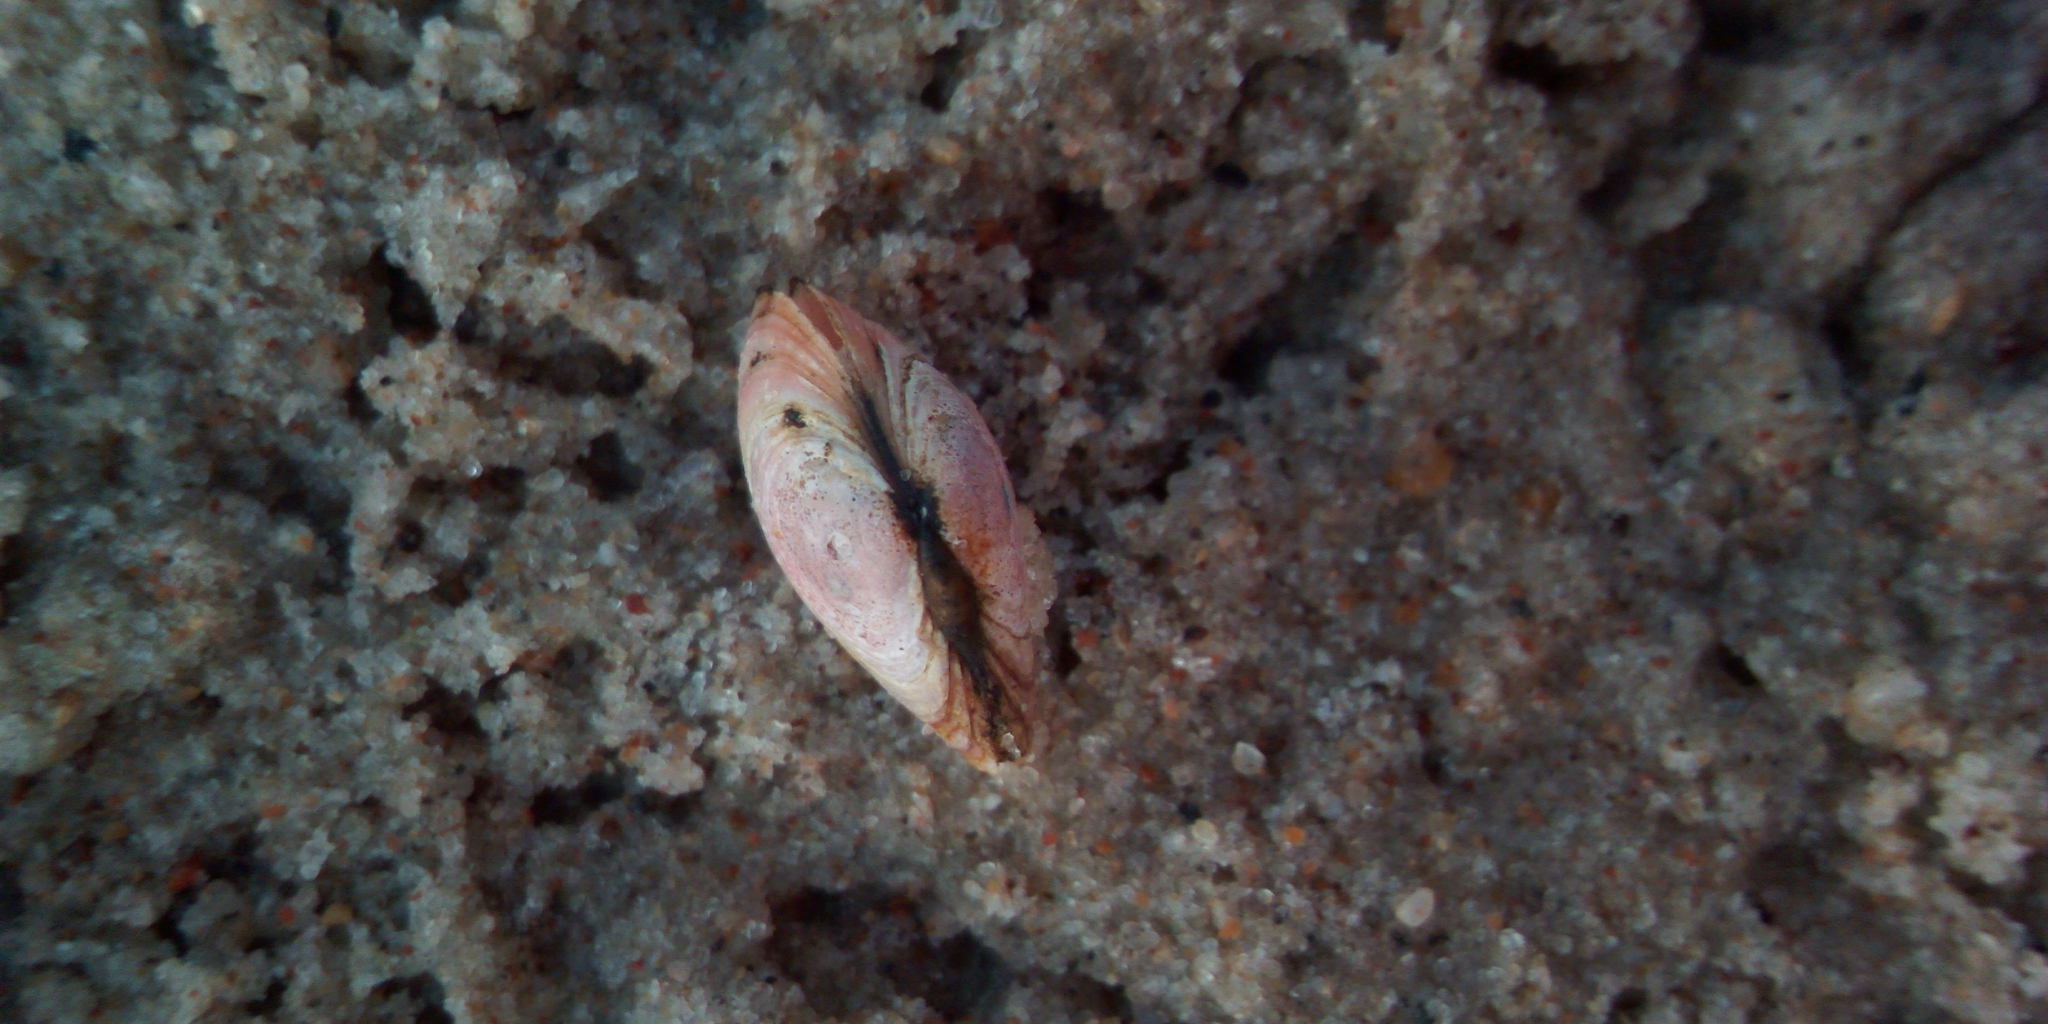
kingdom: Animalia
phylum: Mollusca
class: Bivalvia
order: Cardiida
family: Tellinidae
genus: Macoma
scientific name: Macoma balthica
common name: Baltic tellin
